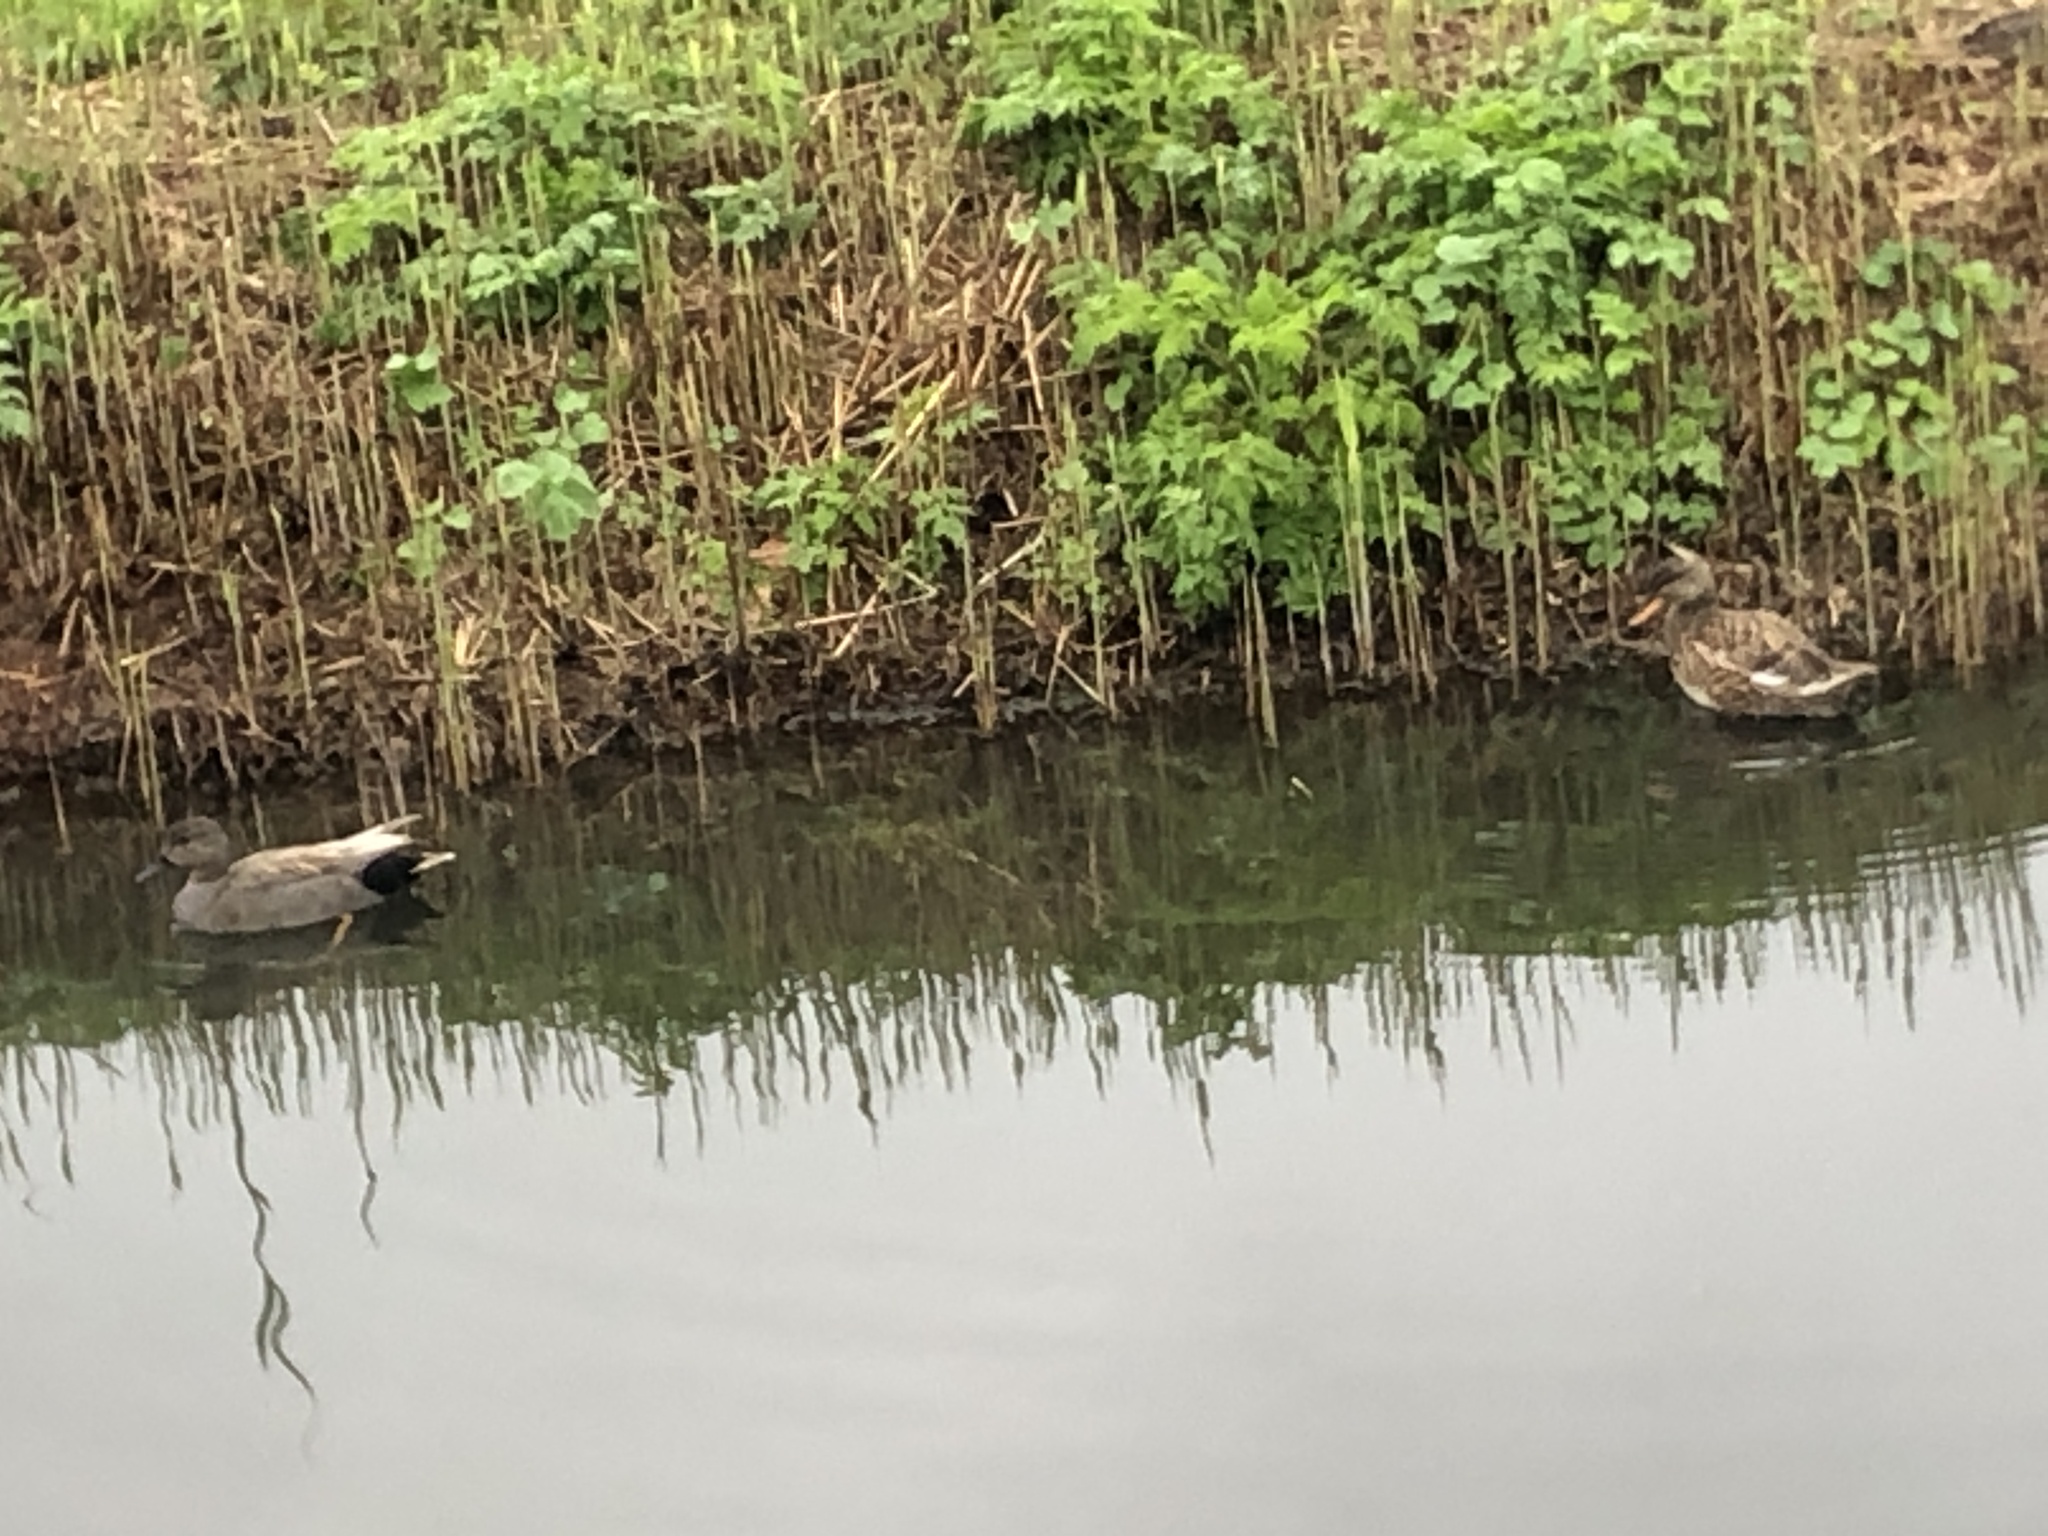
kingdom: Animalia
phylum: Chordata
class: Aves
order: Anseriformes
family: Anatidae
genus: Mareca
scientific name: Mareca strepera
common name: Gadwall
